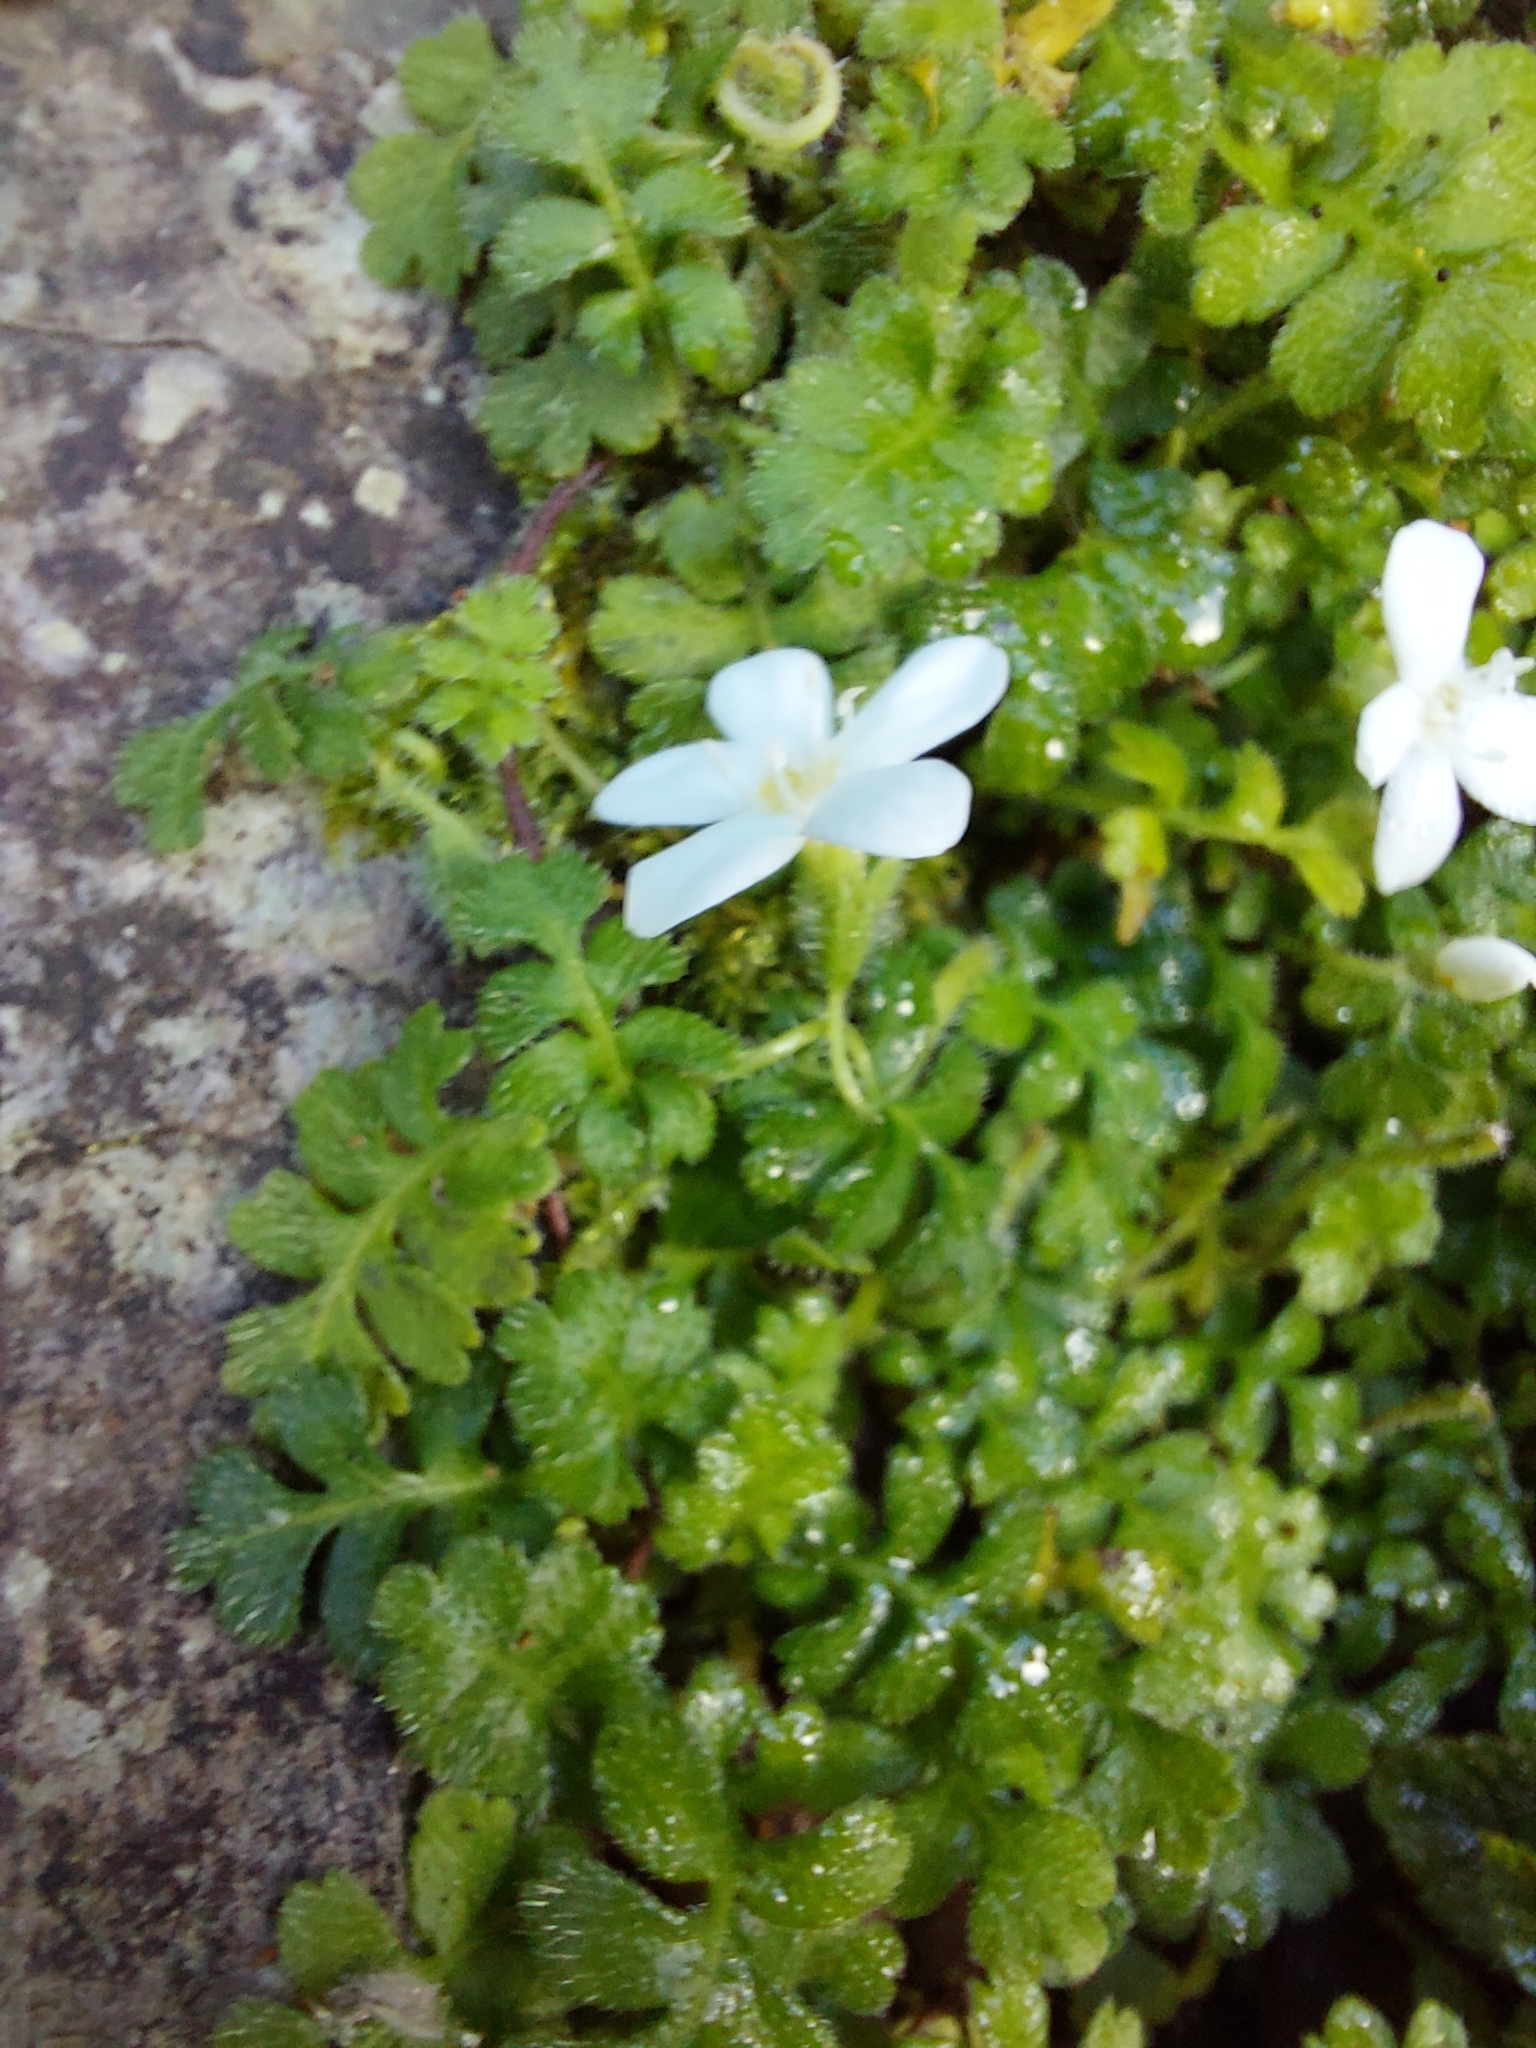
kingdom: Plantae
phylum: Tracheophyta
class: Magnoliopsida
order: Lamiales
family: Plantaginaceae
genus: Ellisiophyllum
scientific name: Ellisiophyllum pinnatum
